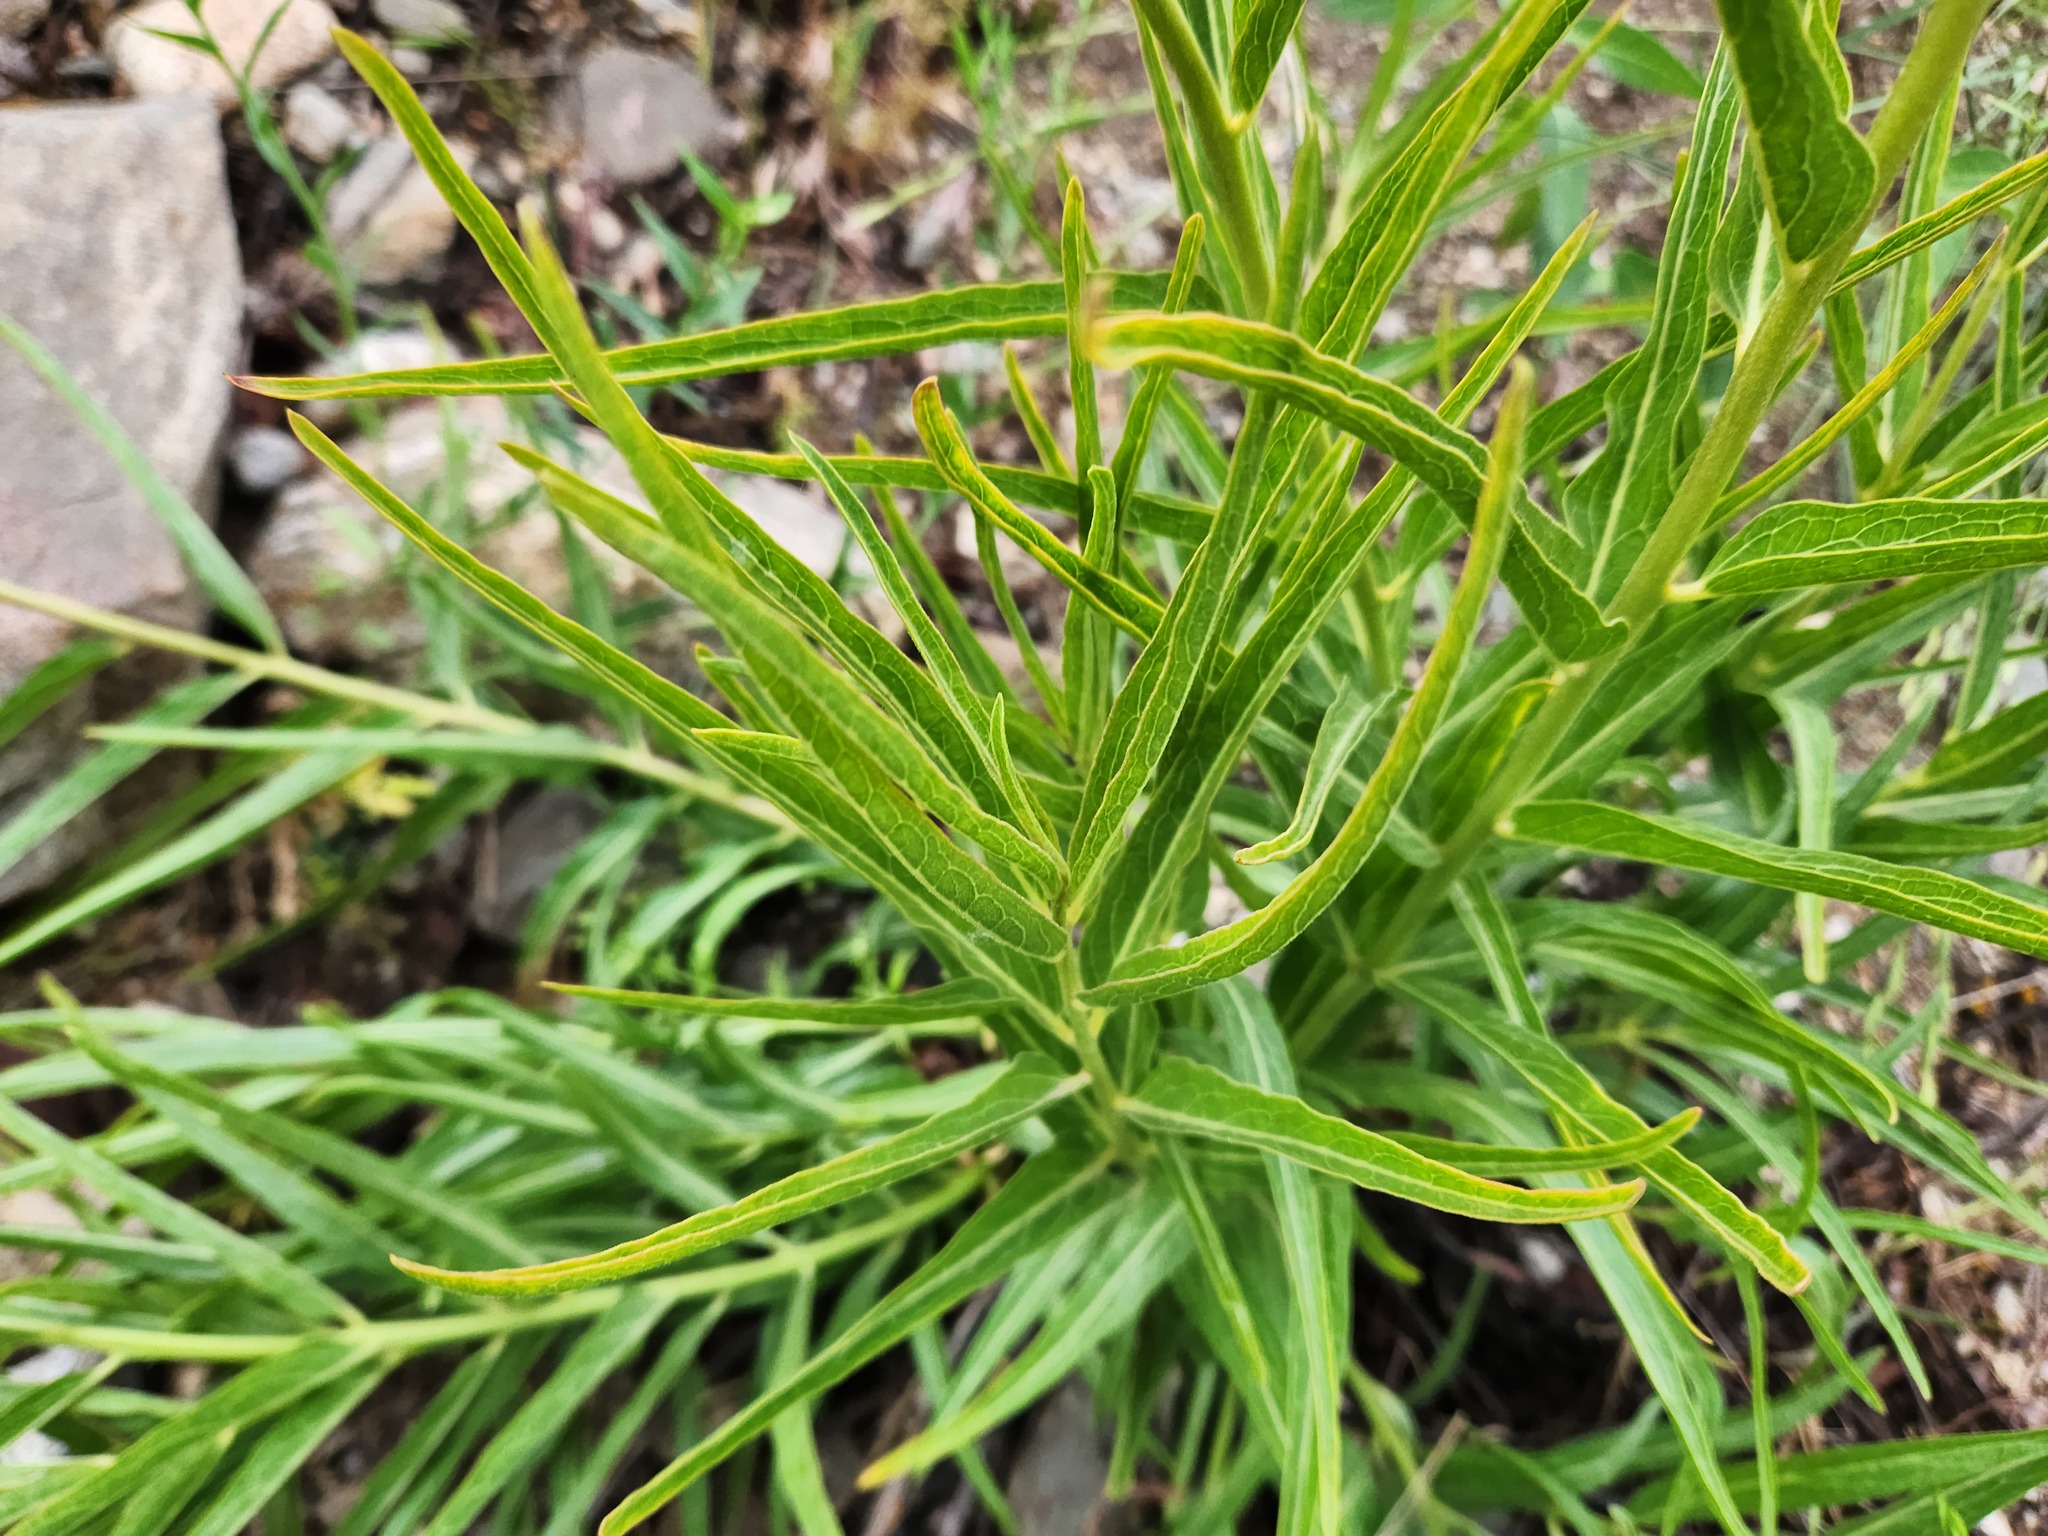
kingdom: Plantae
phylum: Tracheophyta
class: Magnoliopsida
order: Gentianales
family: Apocynaceae
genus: Asclepias
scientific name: Asclepias asperula
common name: Antelope horns
